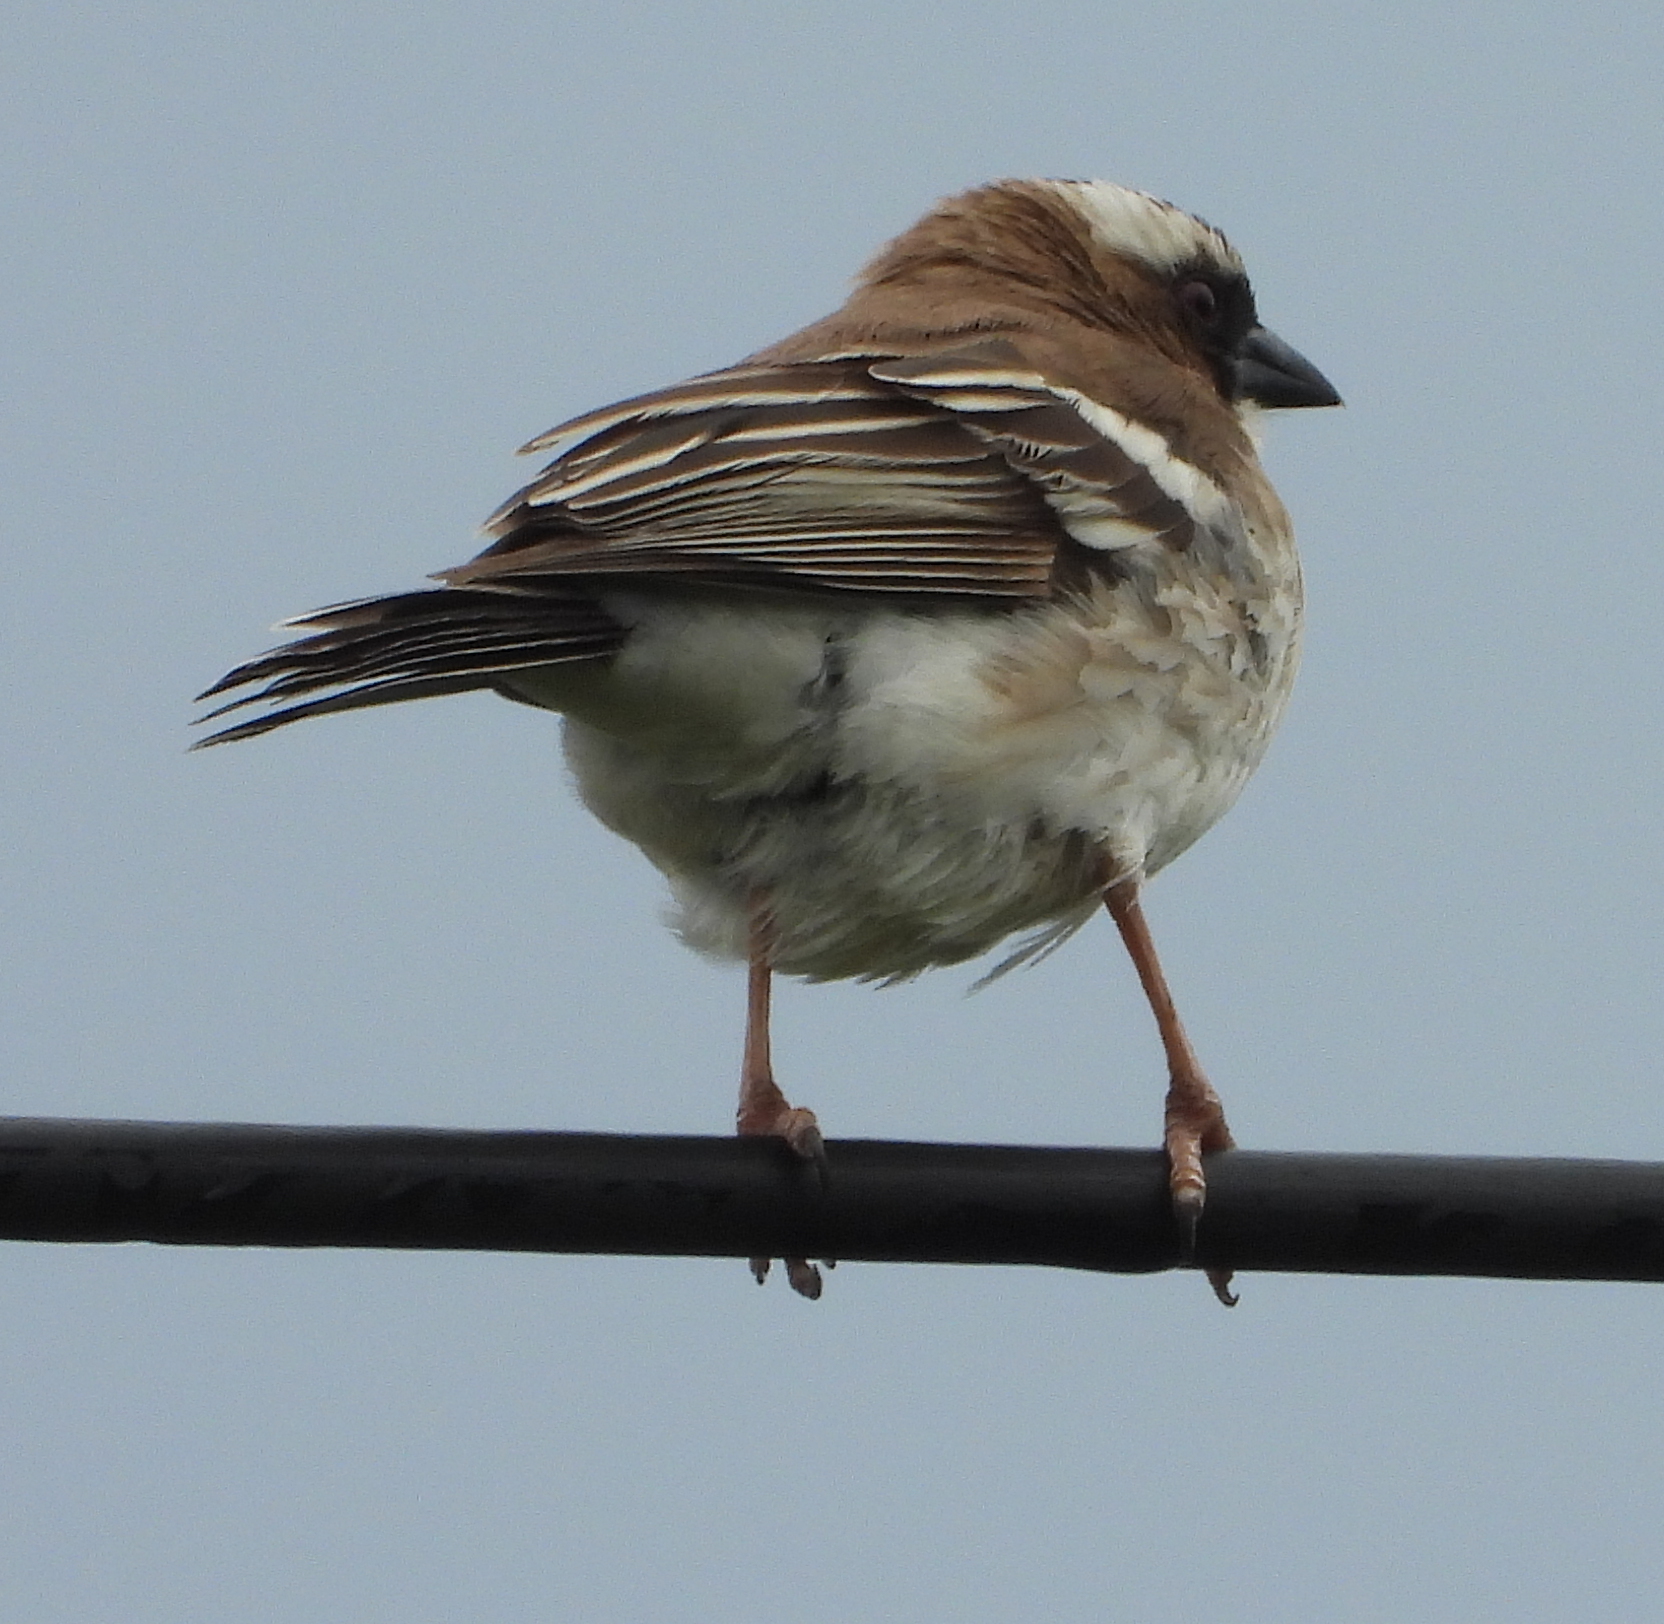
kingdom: Animalia
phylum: Chordata
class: Aves
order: Passeriformes
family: Passeridae
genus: Plocepasser
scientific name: Plocepasser mahali
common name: White-browed sparrow-weaver
